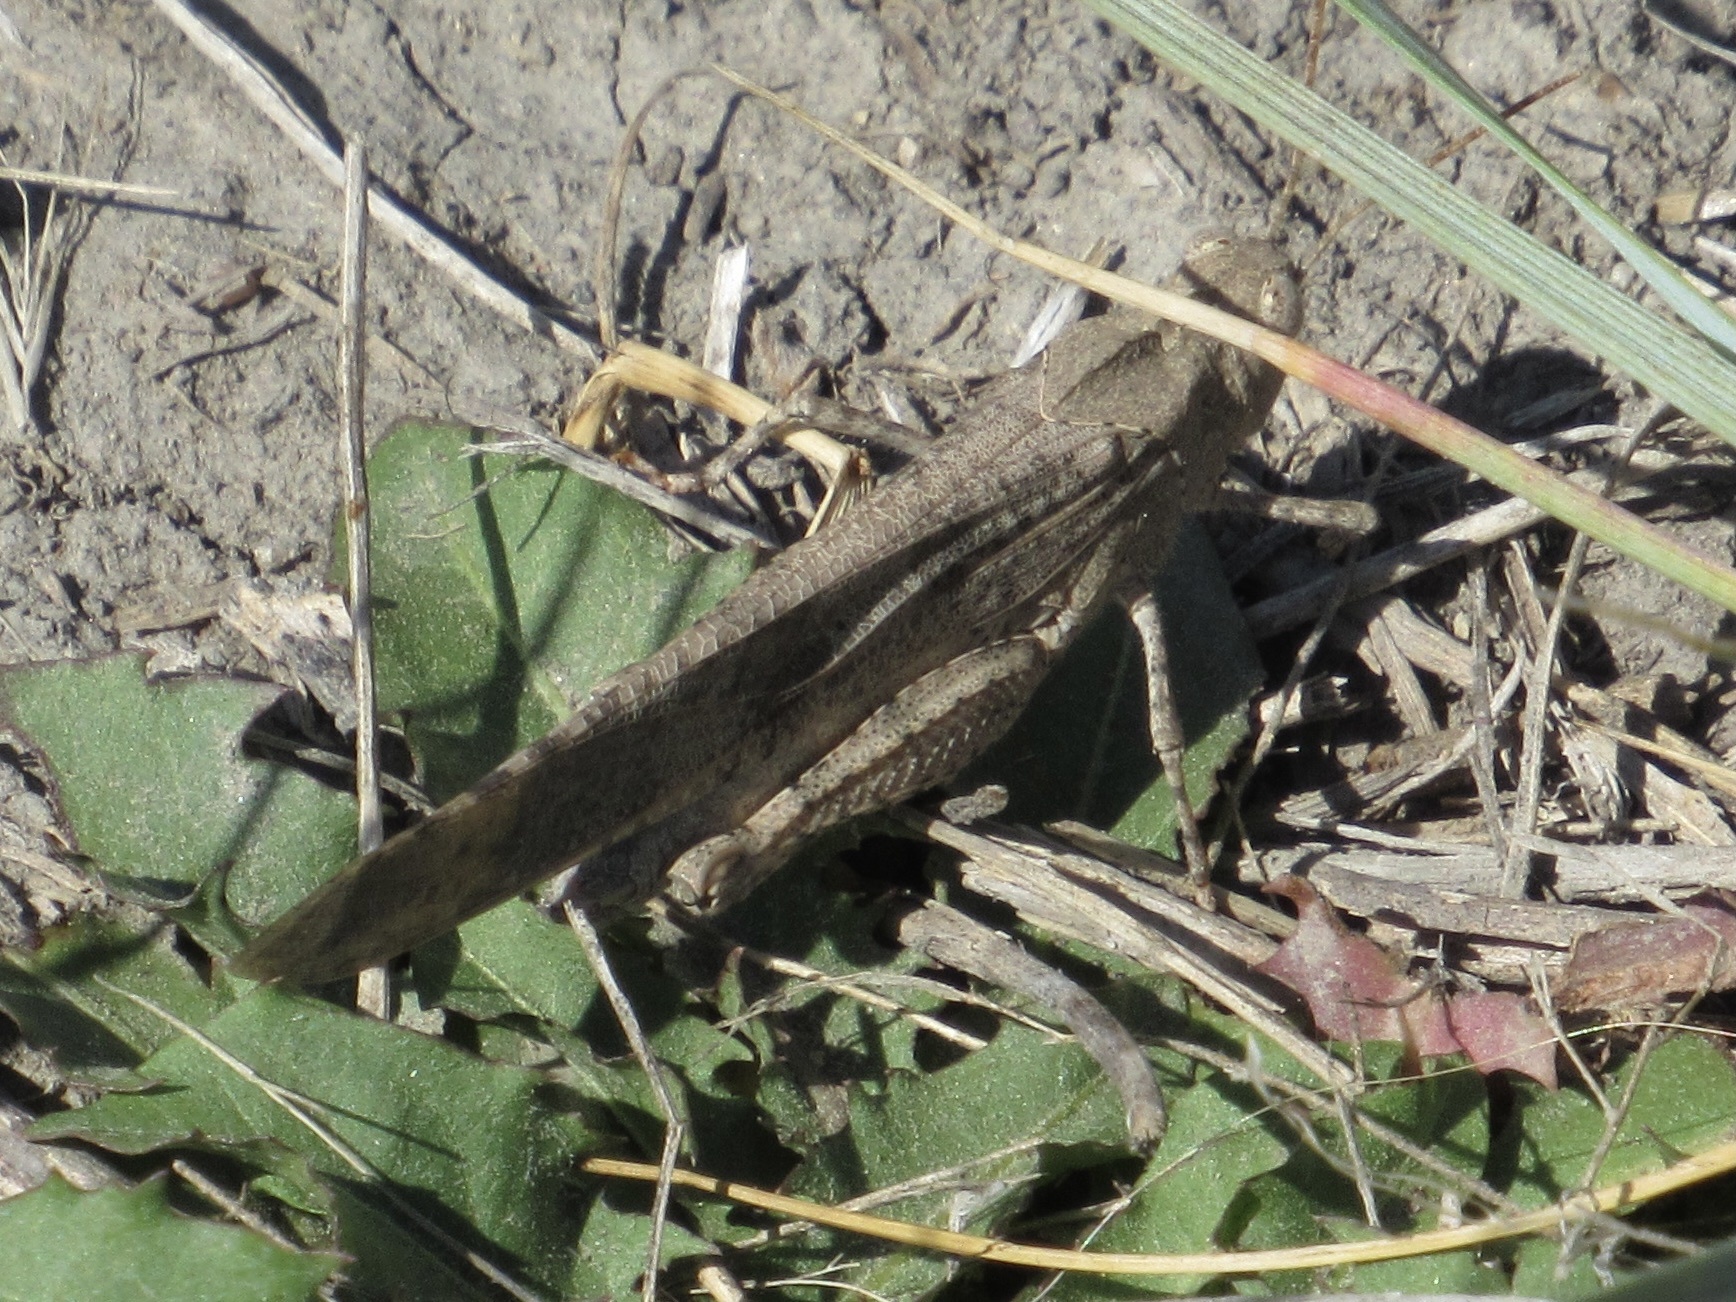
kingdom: Animalia
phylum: Arthropoda
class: Insecta
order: Orthoptera
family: Acrididae
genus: Dissosteira
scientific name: Dissosteira carolina
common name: Carolina grasshopper
